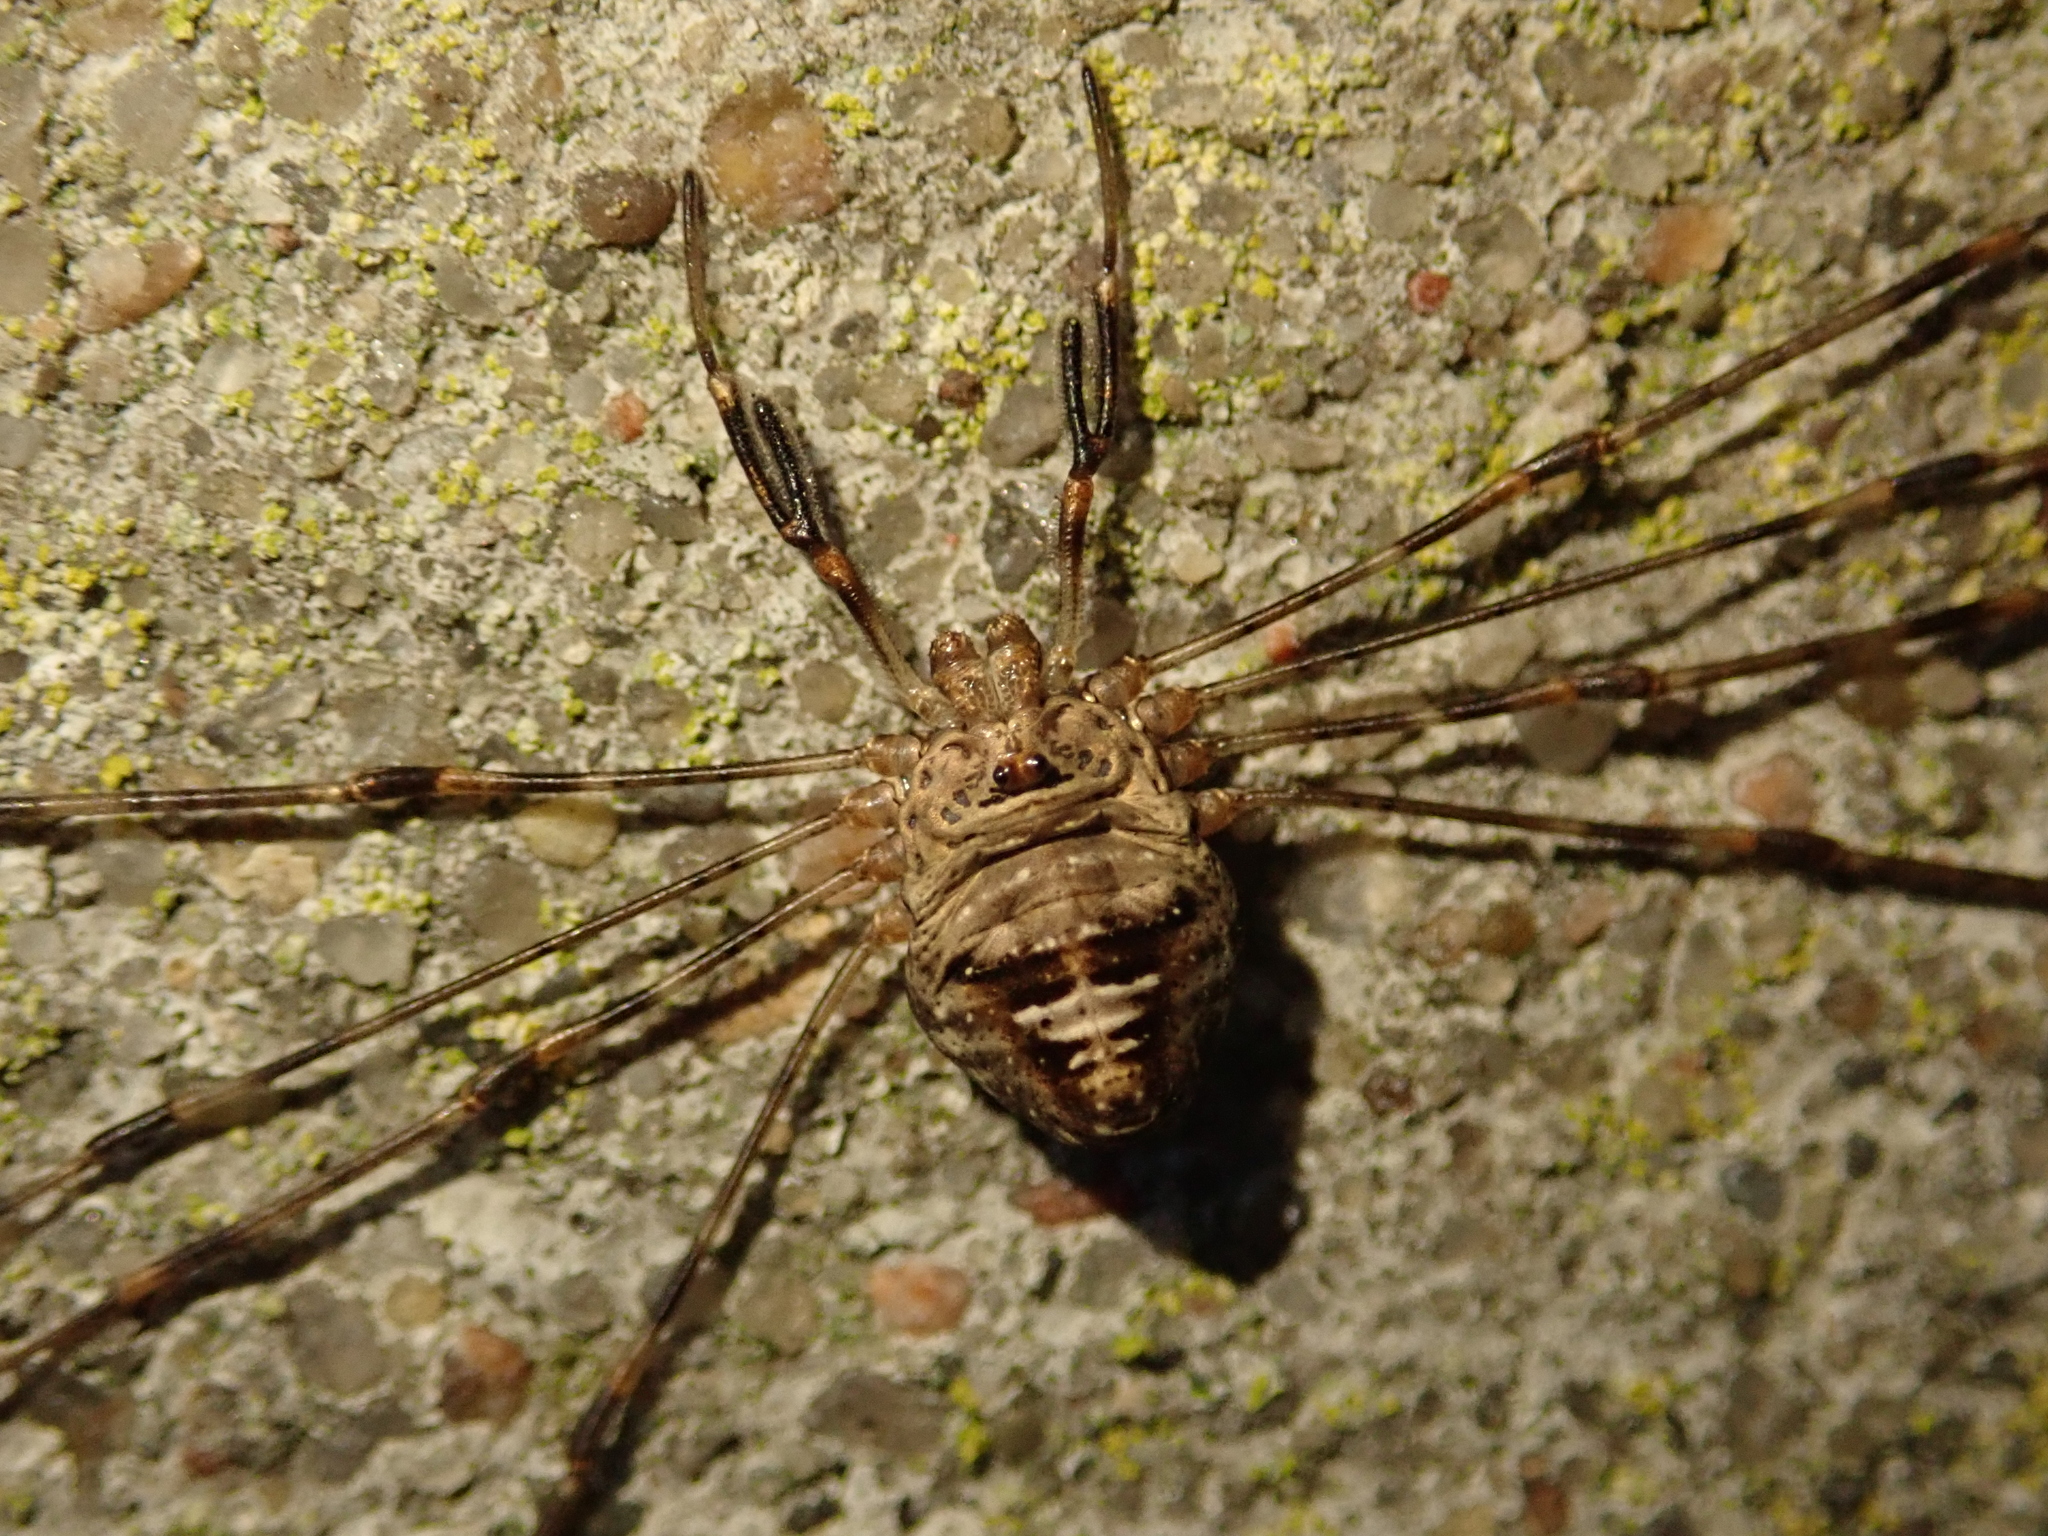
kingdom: Animalia
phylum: Arthropoda
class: Arachnida
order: Opiliones
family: Phalangiidae
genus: Dicranopalpus
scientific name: Dicranopalpus ramosus
